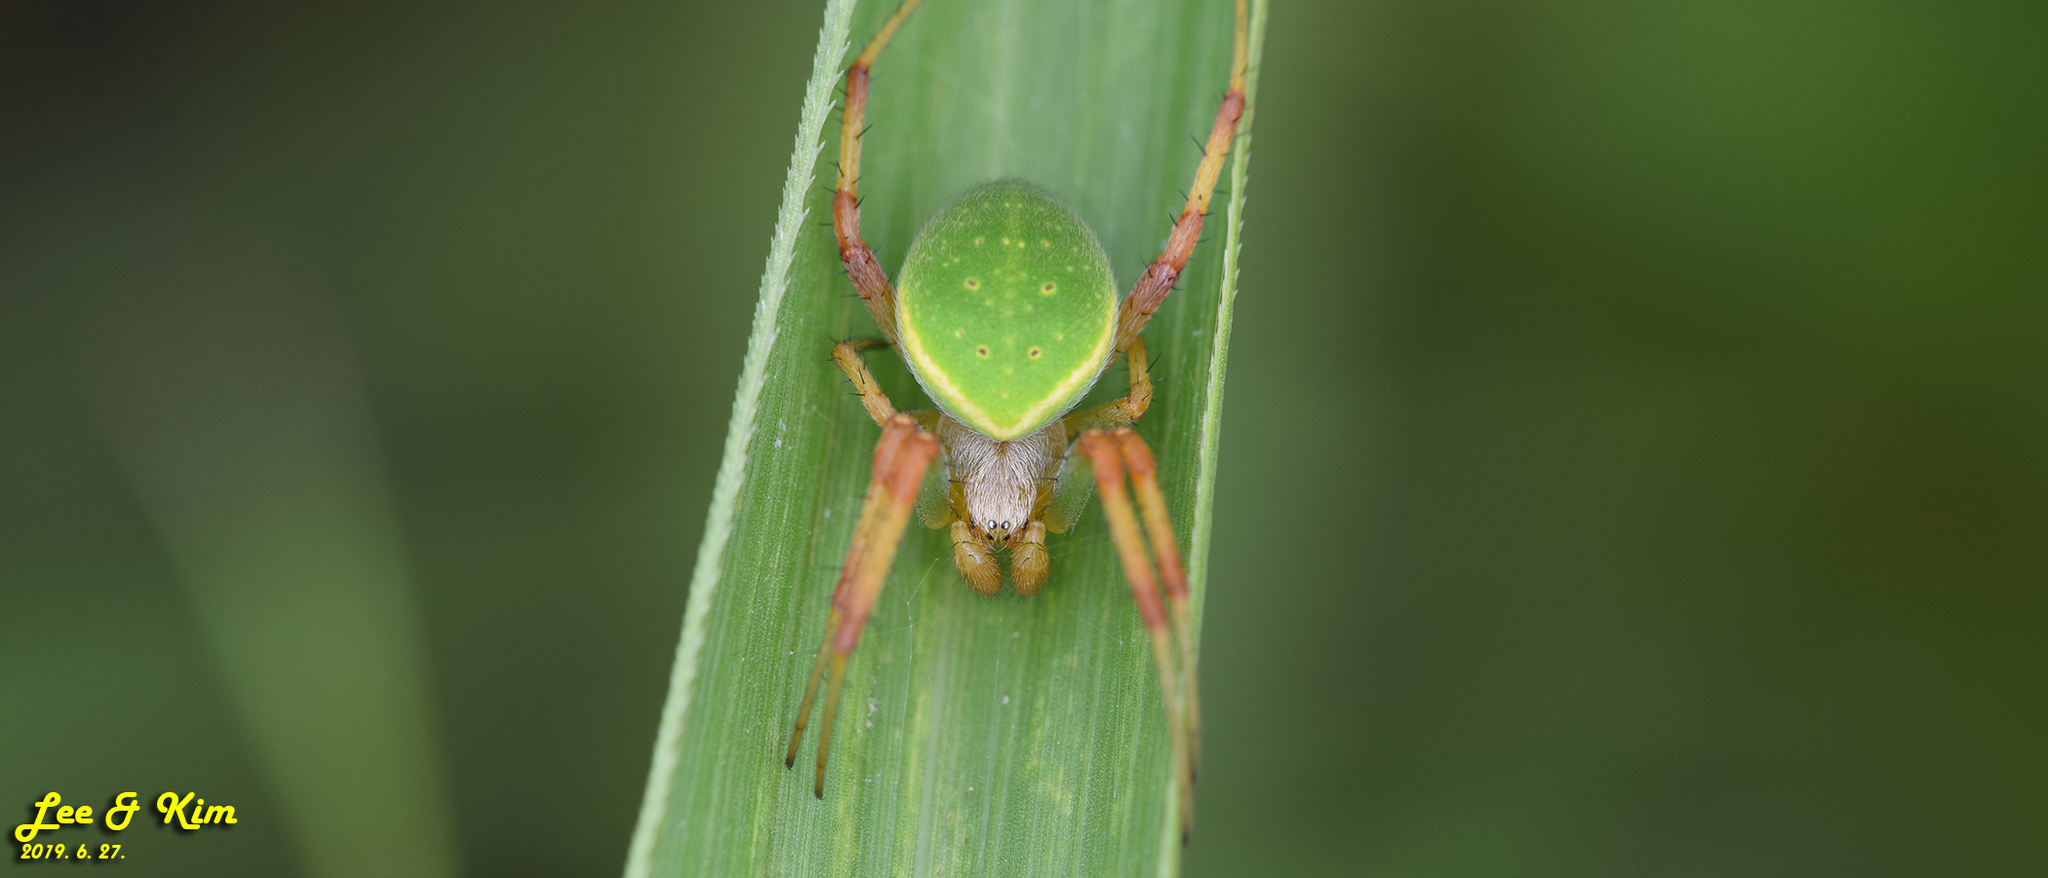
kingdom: Animalia
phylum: Arthropoda
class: Arachnida
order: Araneae
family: Araneidae
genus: Neoscona
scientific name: Neoscona scylloides
